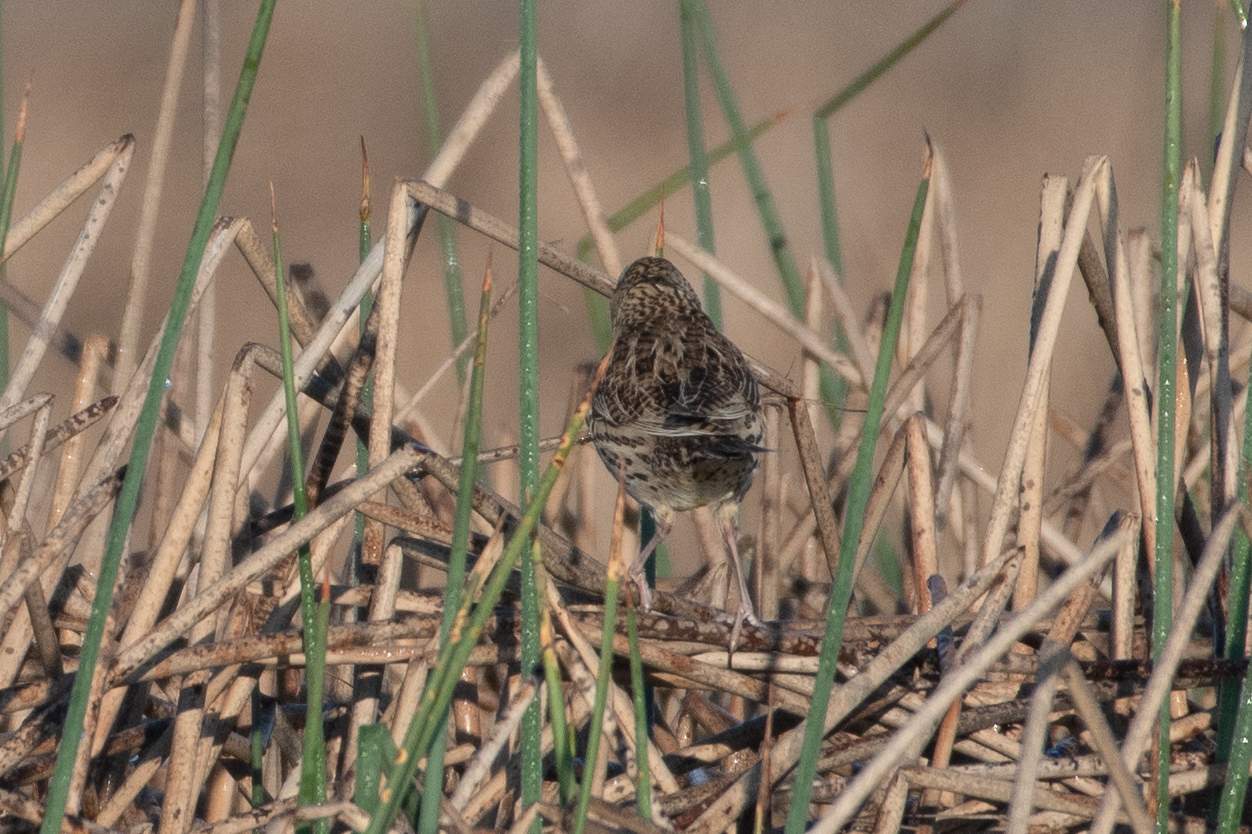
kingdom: Animalia
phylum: Chordata
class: Aves
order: Passeriformes
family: Icteridae
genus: Sturnella
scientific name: Sturnella neglecta
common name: Western meadowlark
